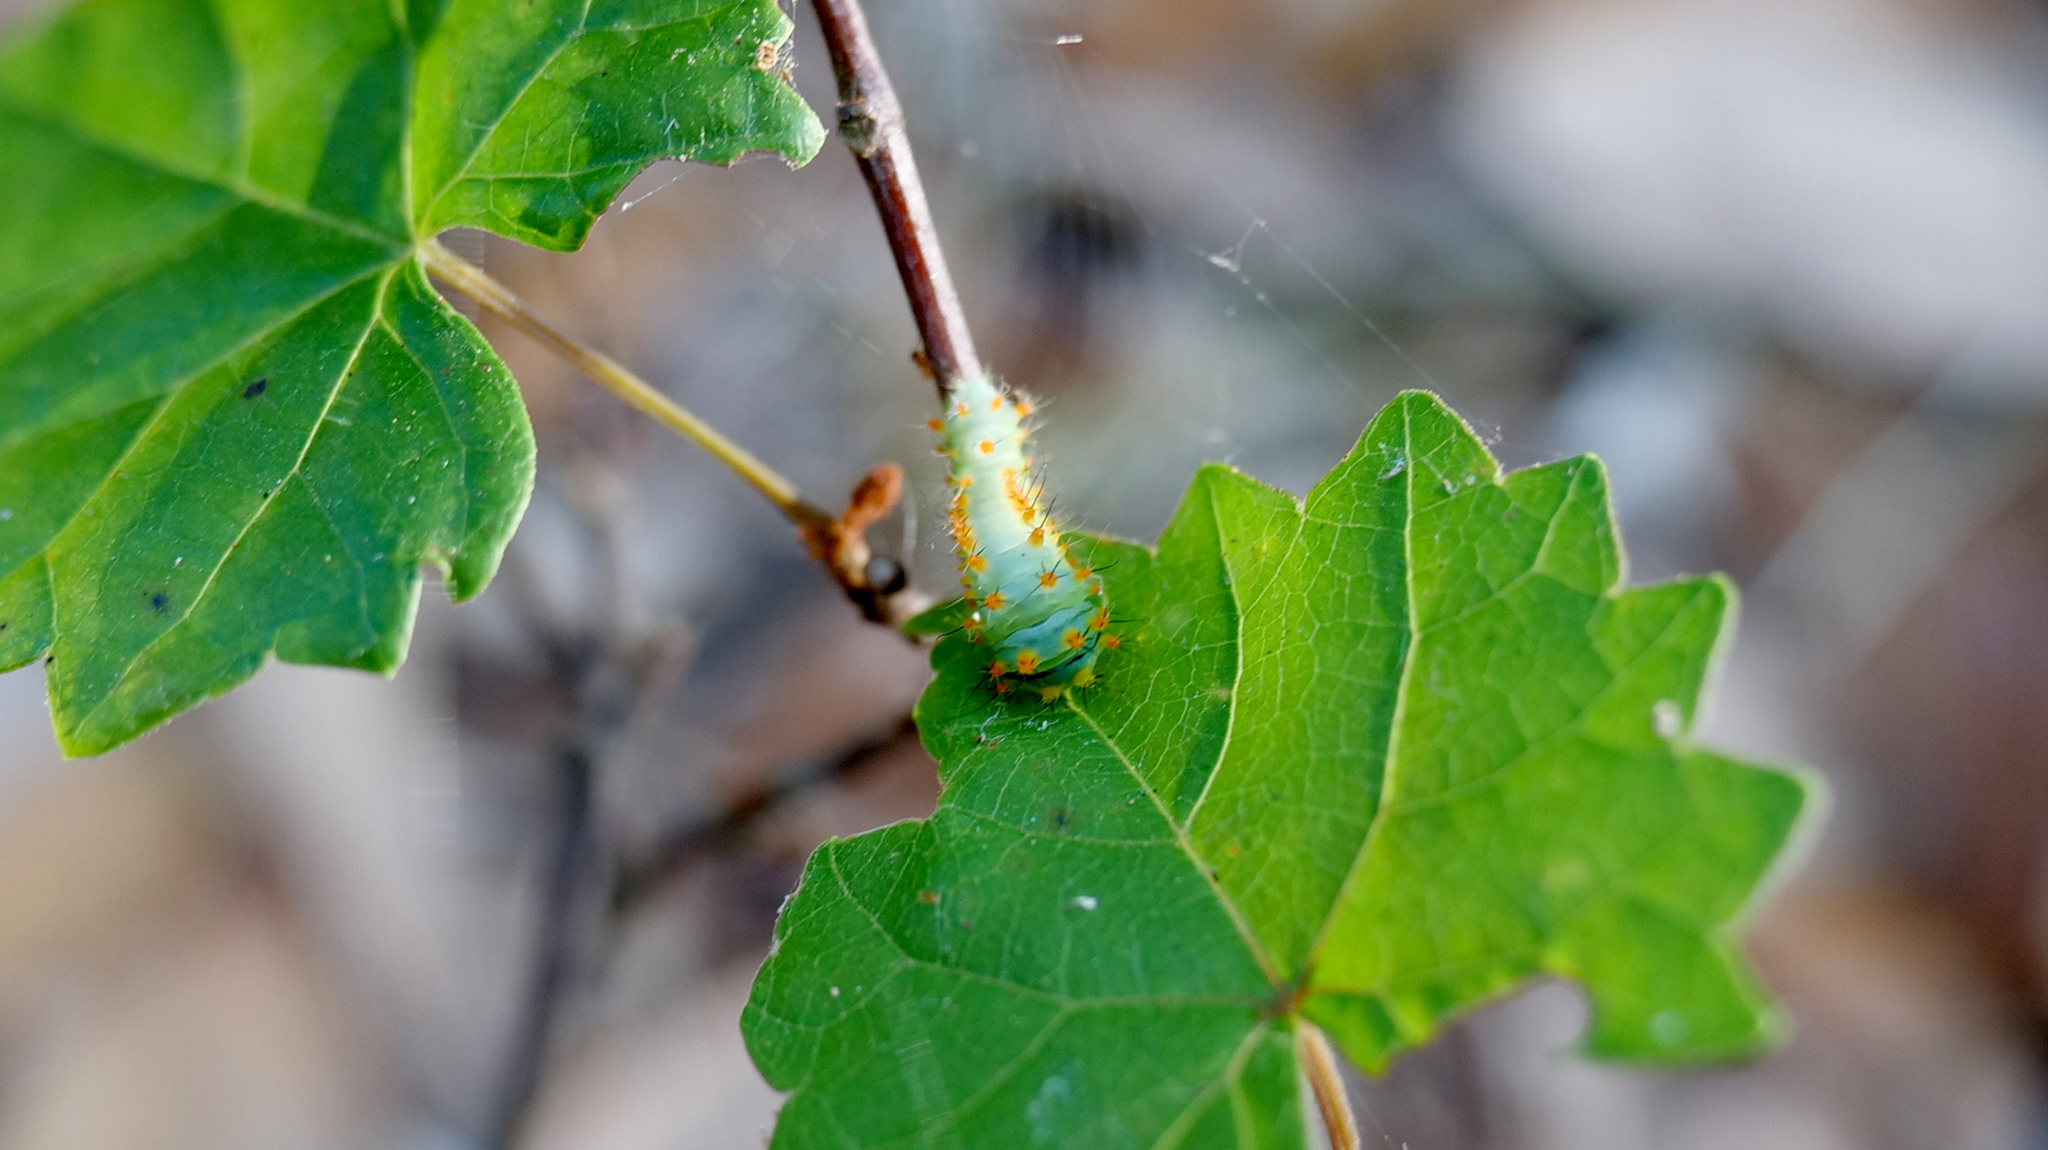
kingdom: Animalia
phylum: Arthropoda
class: Insecta
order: Lepidoptera
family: Saturniidae
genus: Antheraea
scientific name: Antheraea polyphemus
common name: Polyphemus moth
